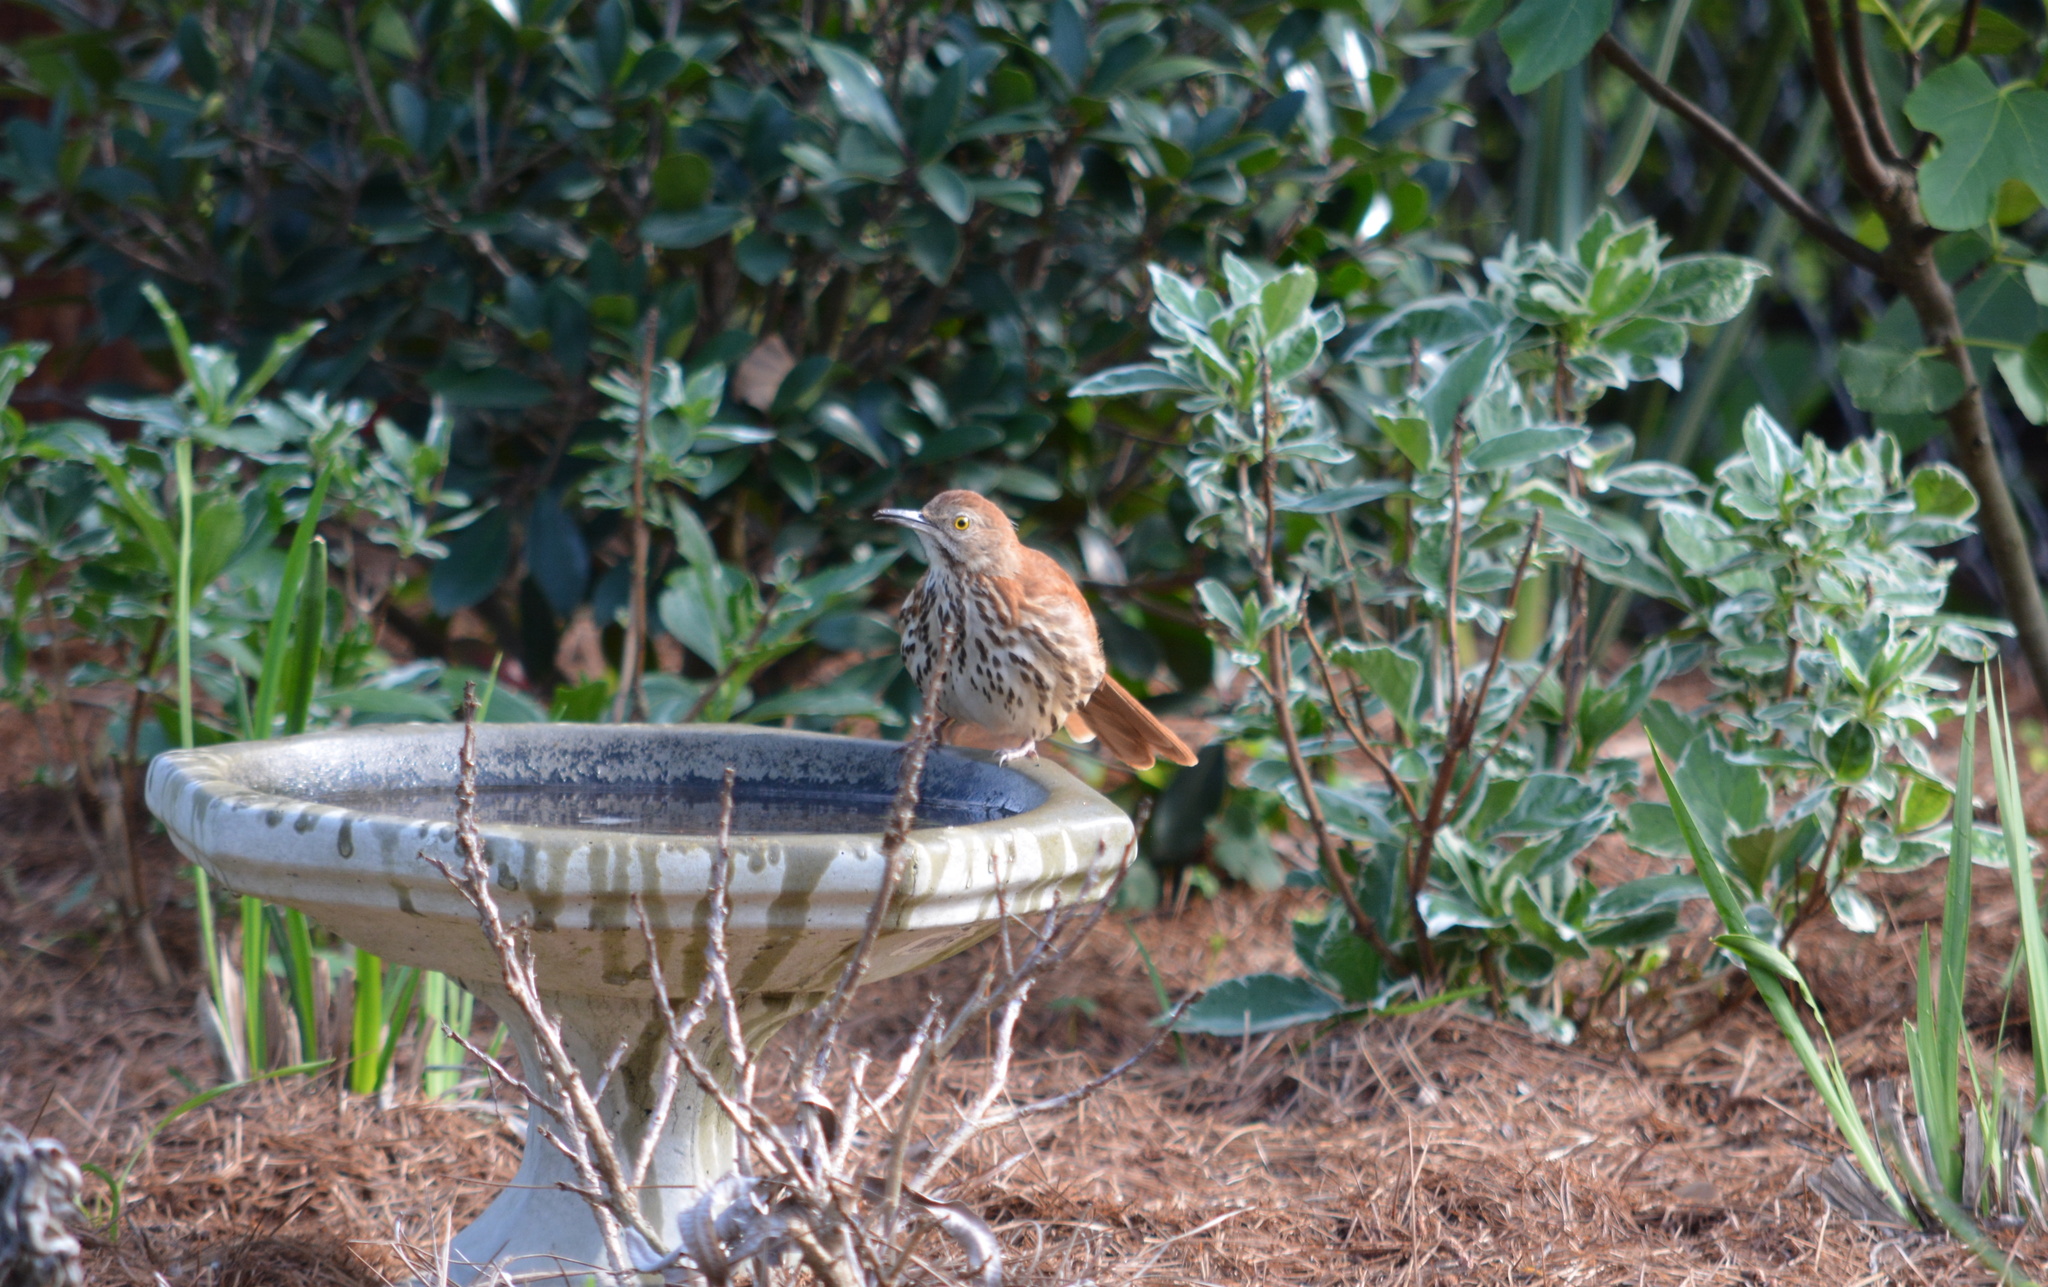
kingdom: Animalia
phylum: Chordata
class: Aves
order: Passeriformes
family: Mimidae
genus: Toxostoma
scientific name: Toxostoma rufum
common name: Brown thrasher
